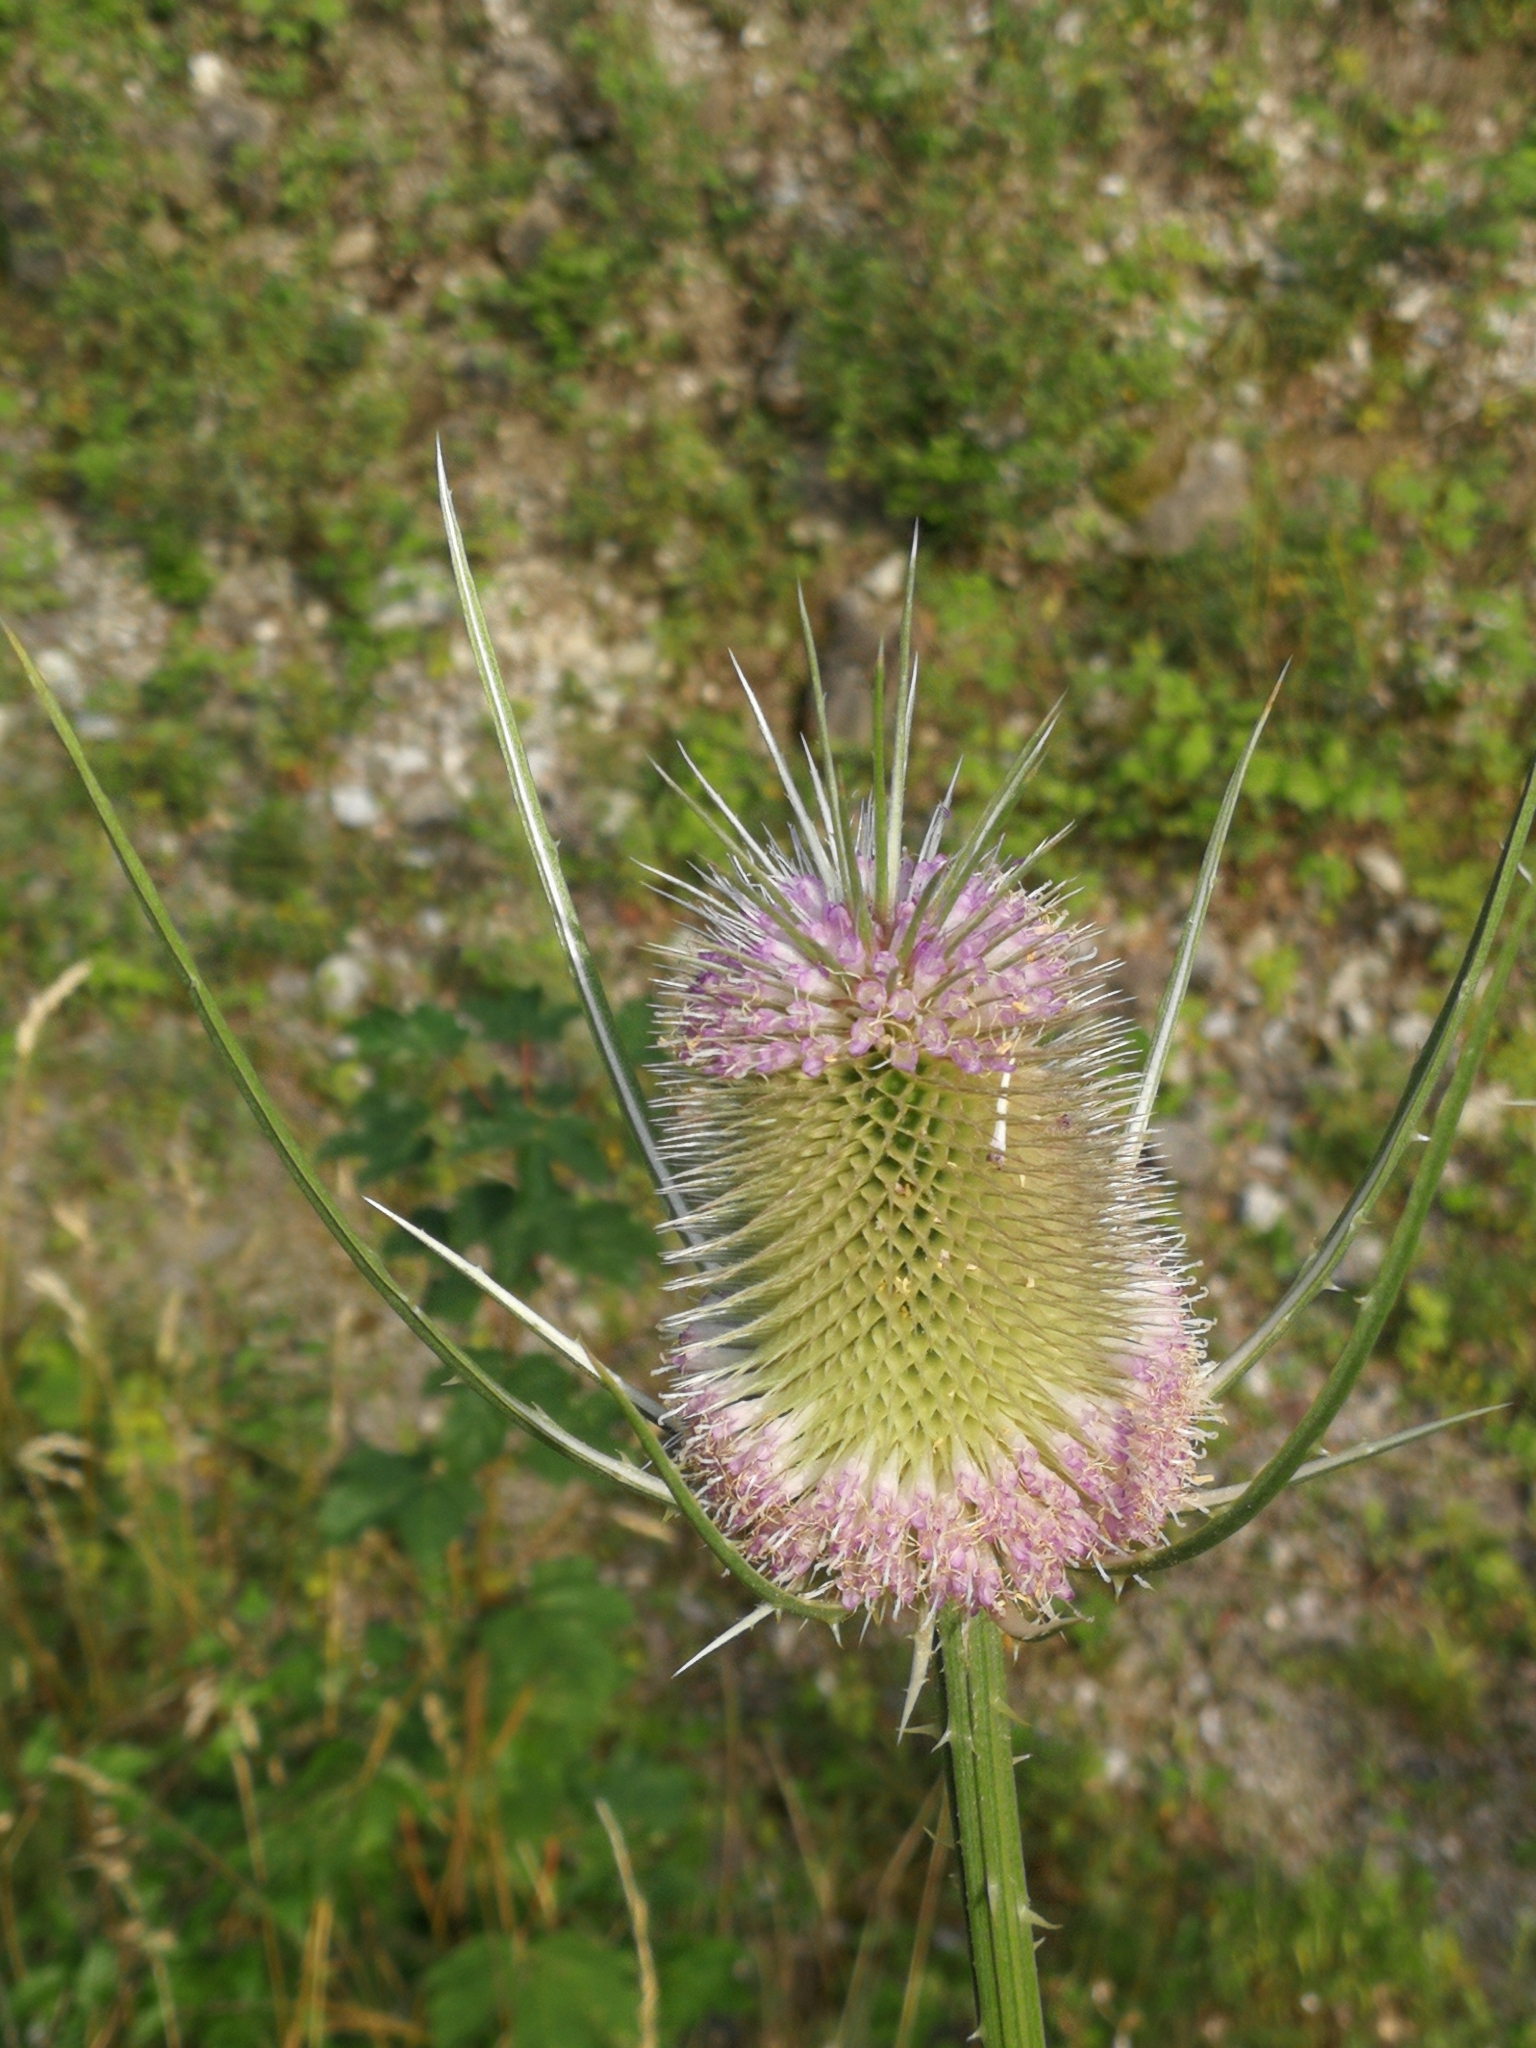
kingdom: Plantae
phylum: Tracheophyta
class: Magnoliopsida
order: Dipsacales
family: Caprifoliaceae
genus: Dipsacus
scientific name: Dipsacus fullonum
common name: Teasel
